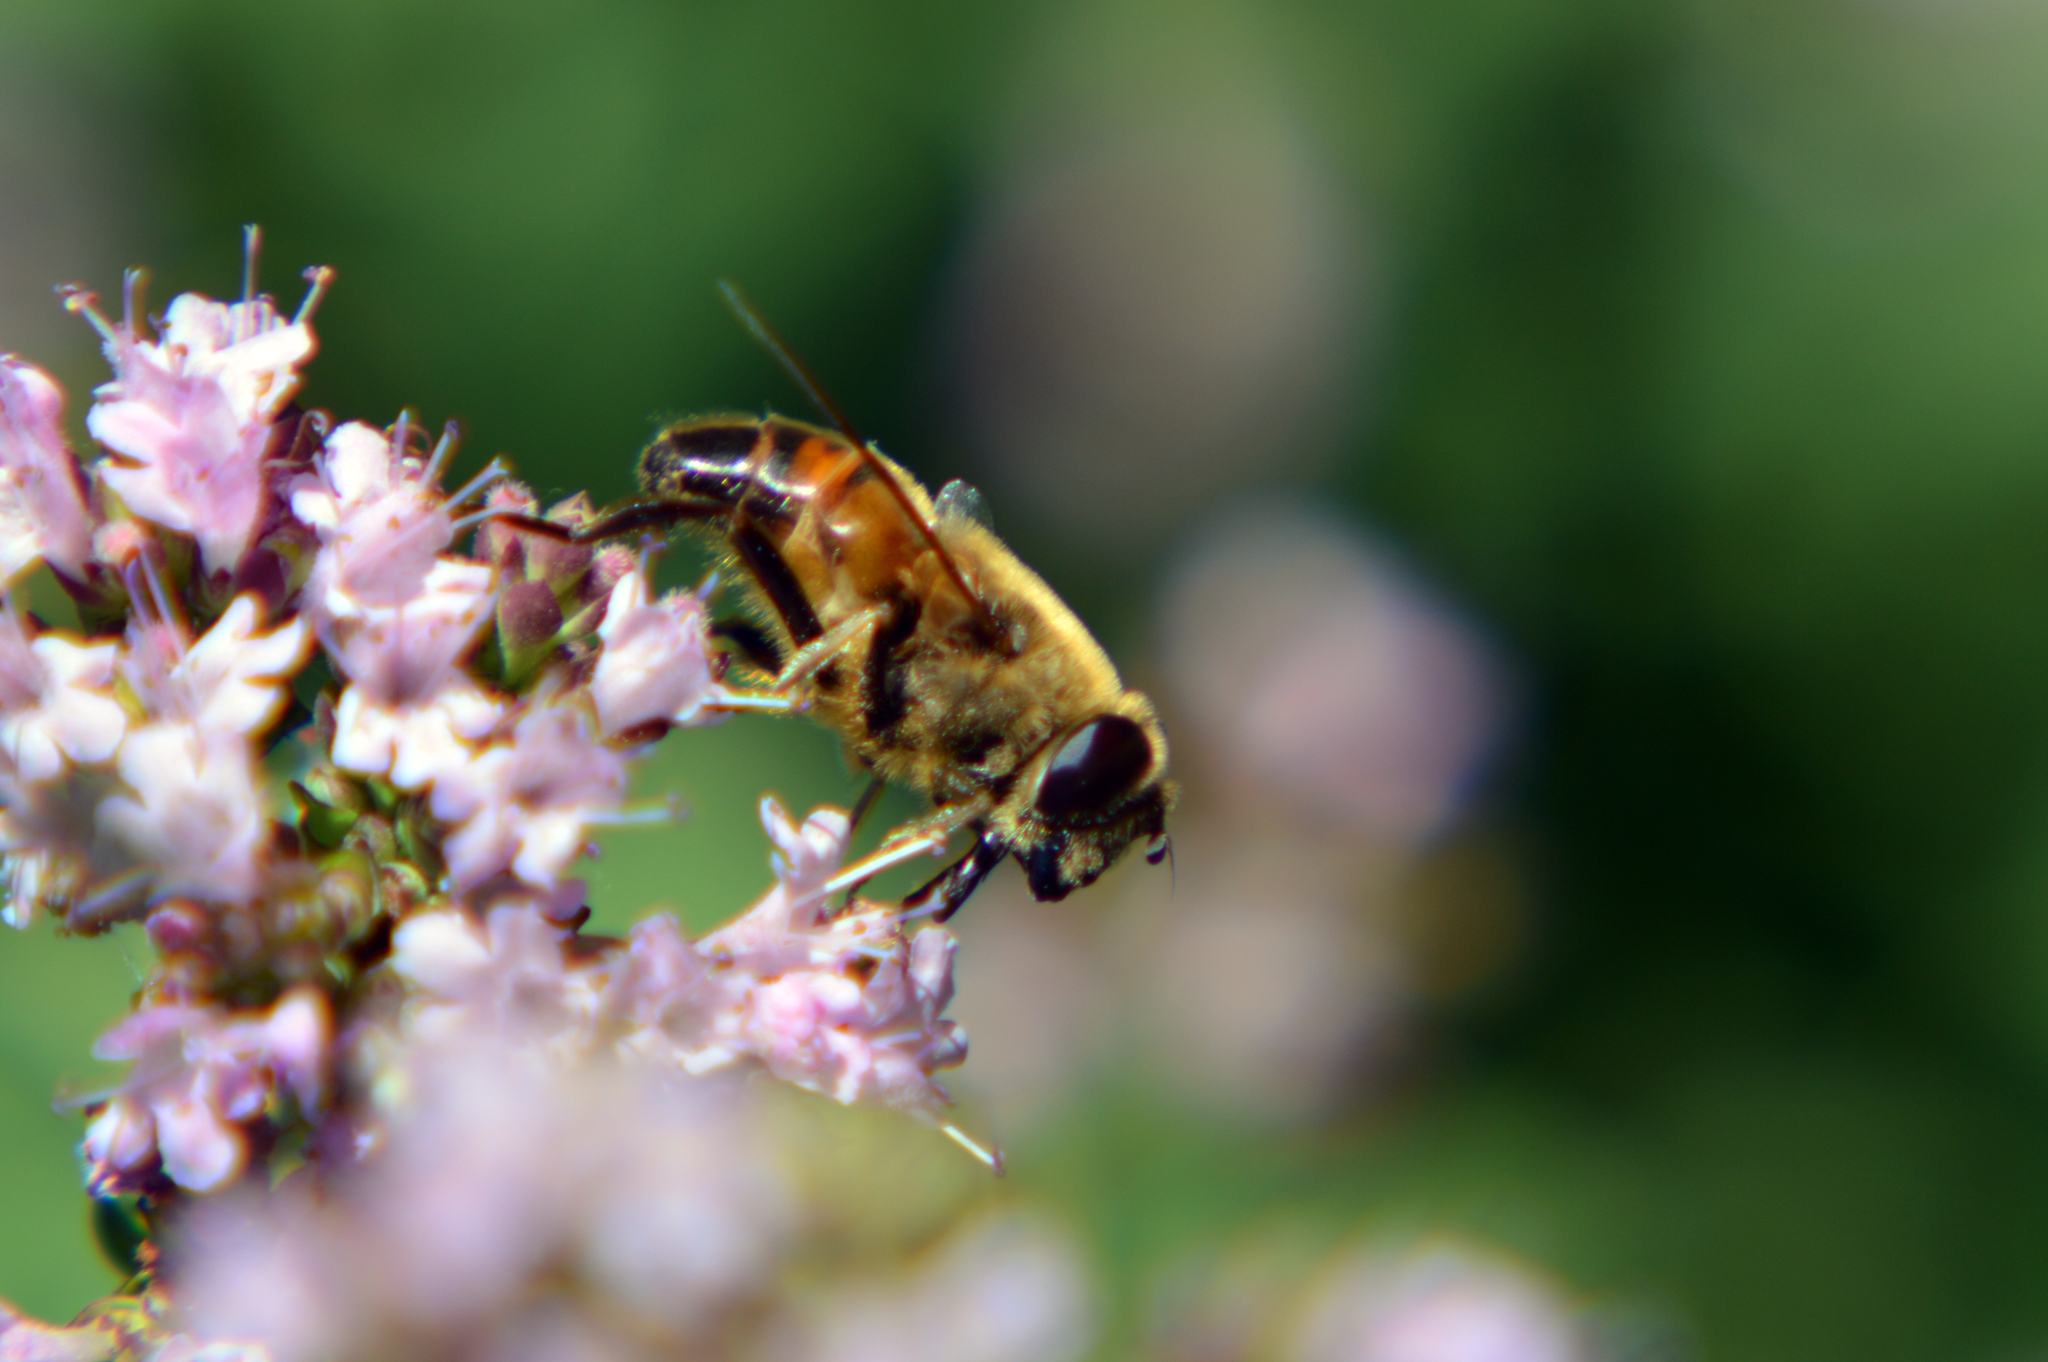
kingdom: Animalia
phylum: Arthropoda
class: Insecta
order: Diptera
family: Syrphidae
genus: Eristalis
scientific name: Eristalis tenax
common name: Drone fly
